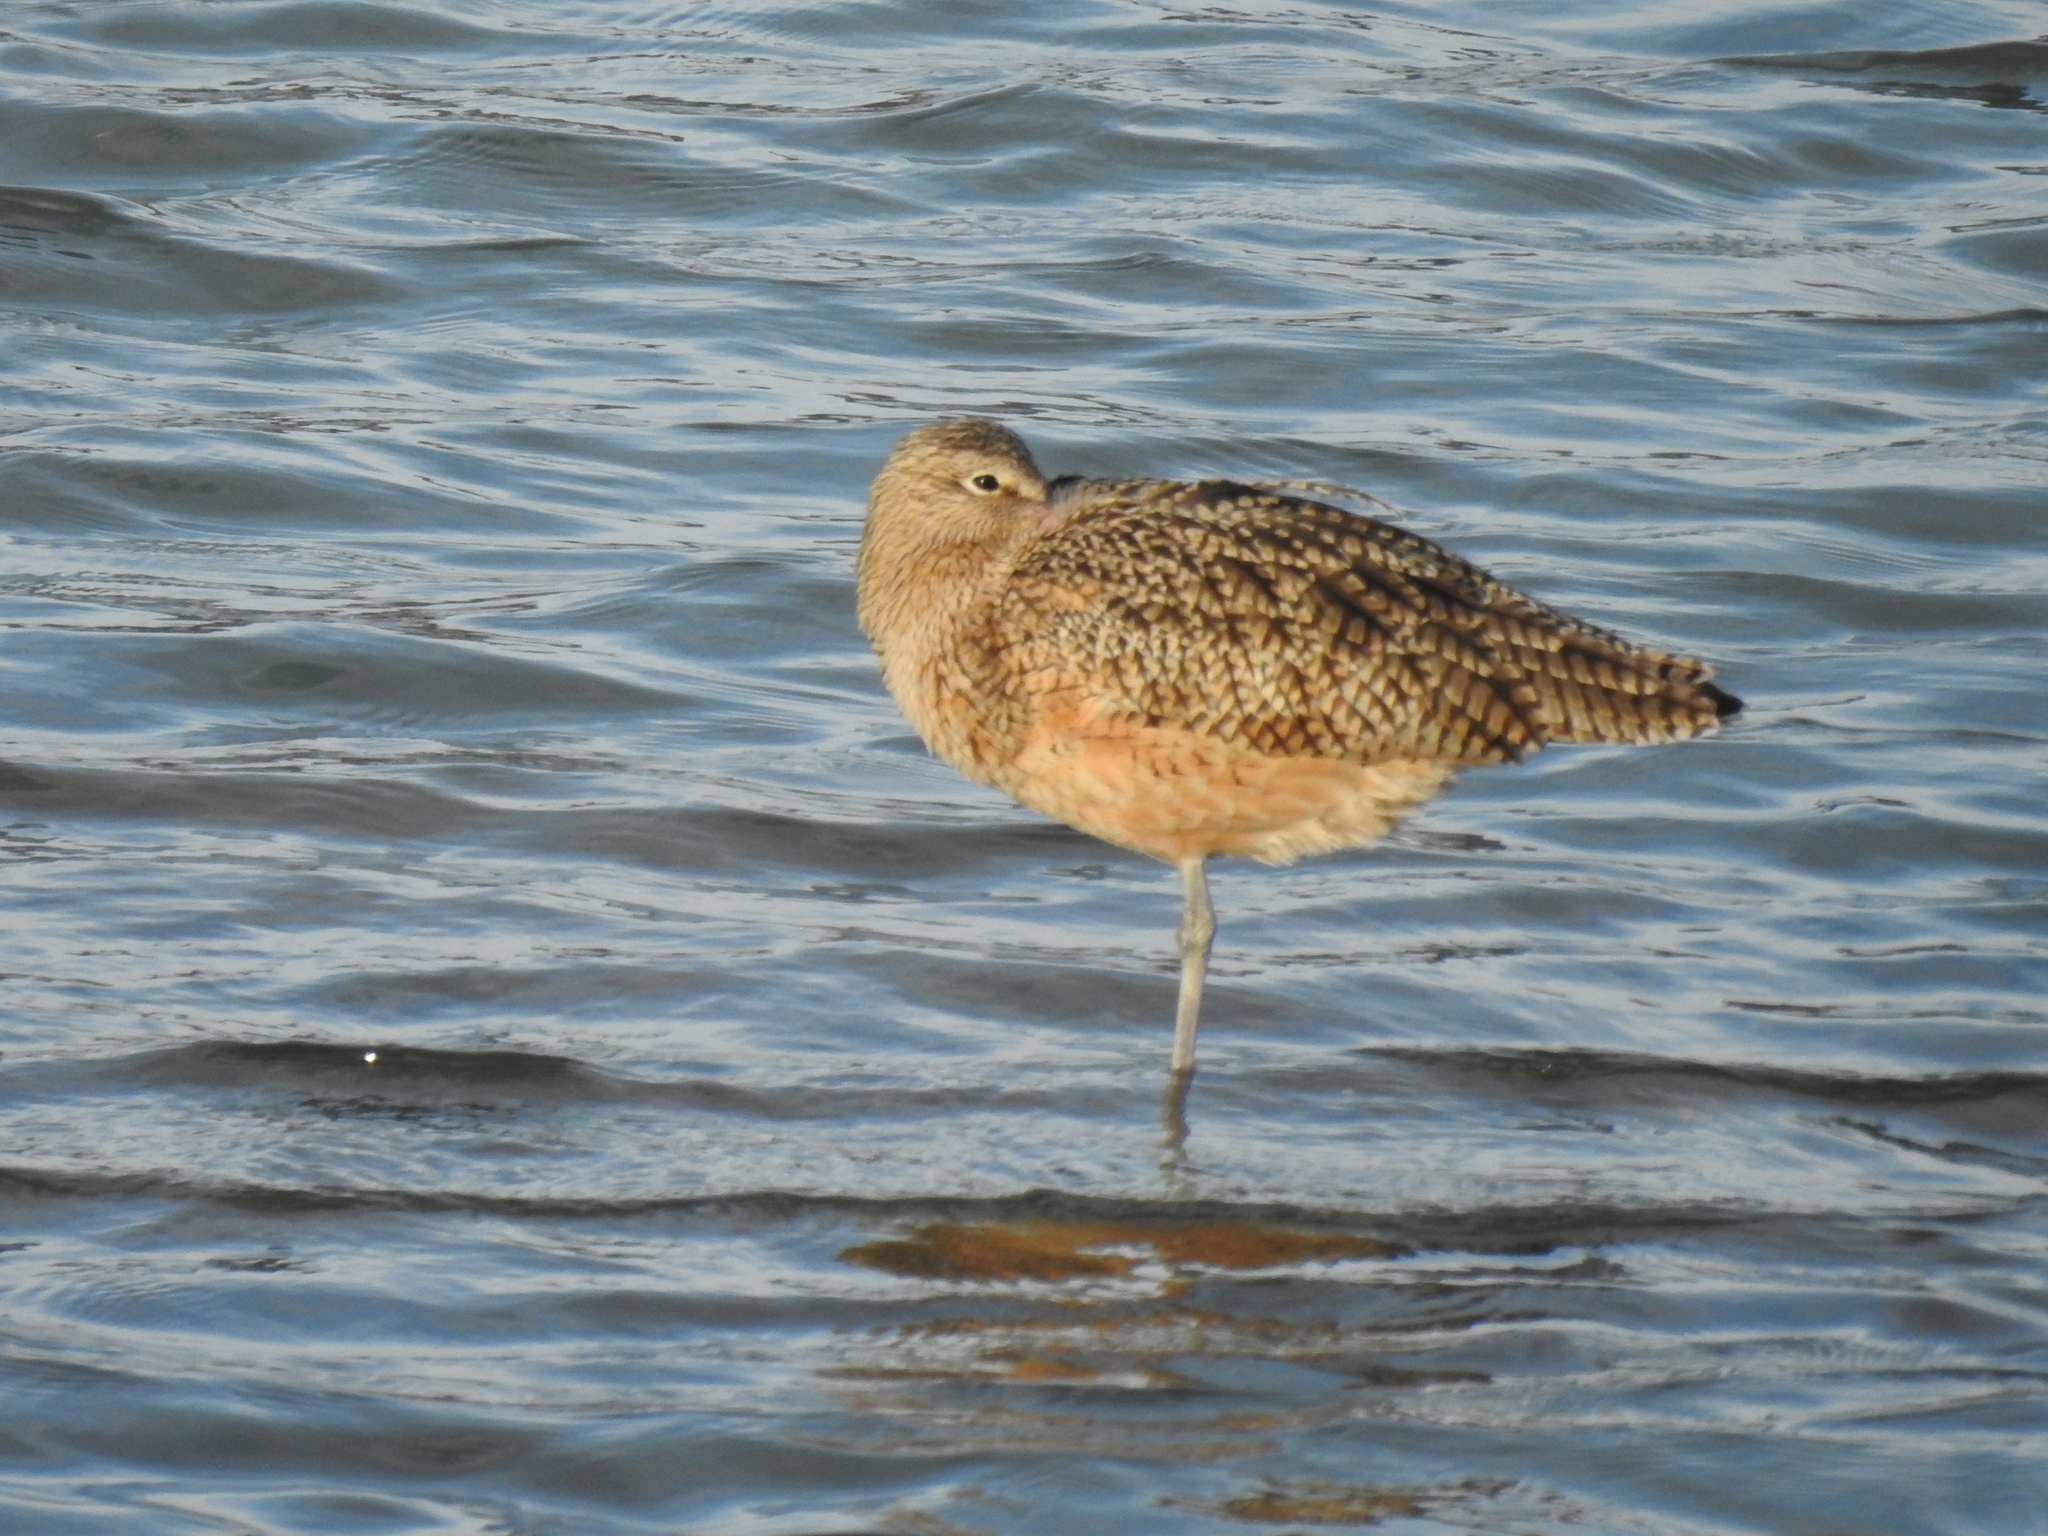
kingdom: Animalia
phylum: Chordata
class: Aves
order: Charadriiformes
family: Scolopacidae
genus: Numenius
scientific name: Numenius americanus
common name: Long-billed curlew
